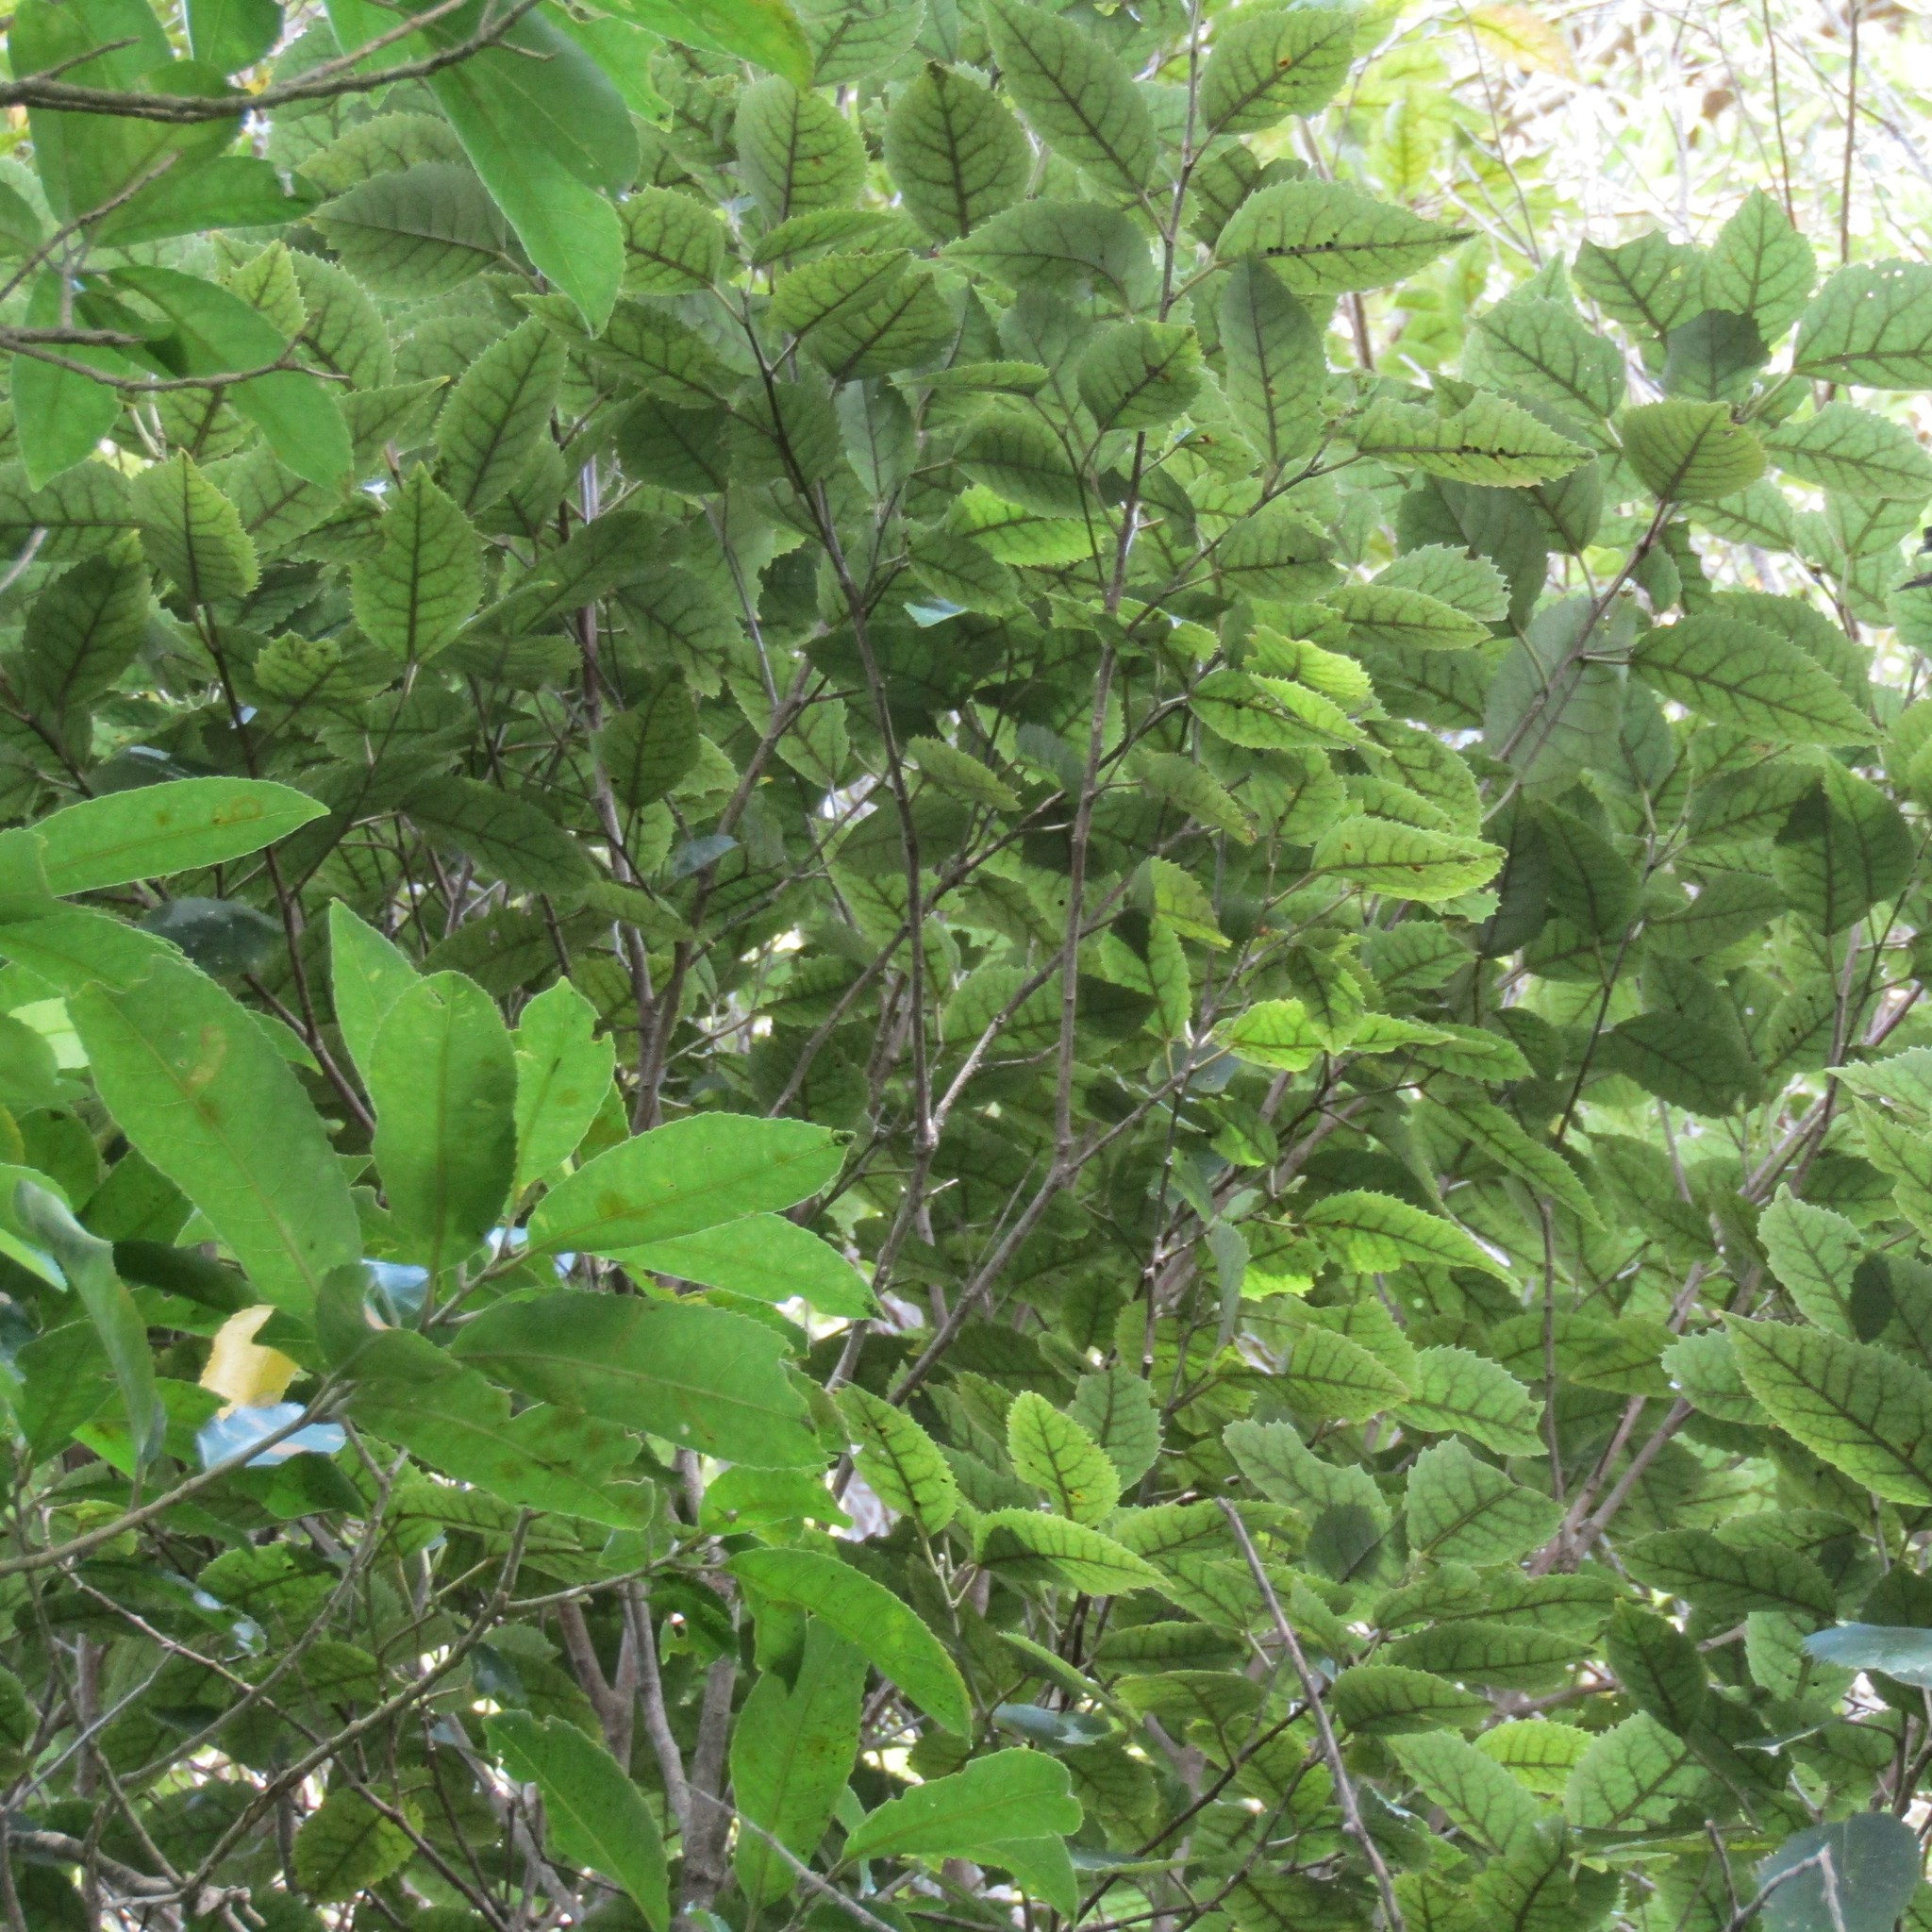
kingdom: Plantae
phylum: Tracheophyta
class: Magnoliopsida
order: Malvales
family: Malvaceae
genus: Hoheria
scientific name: Hoheria populnea
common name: Lacebark
